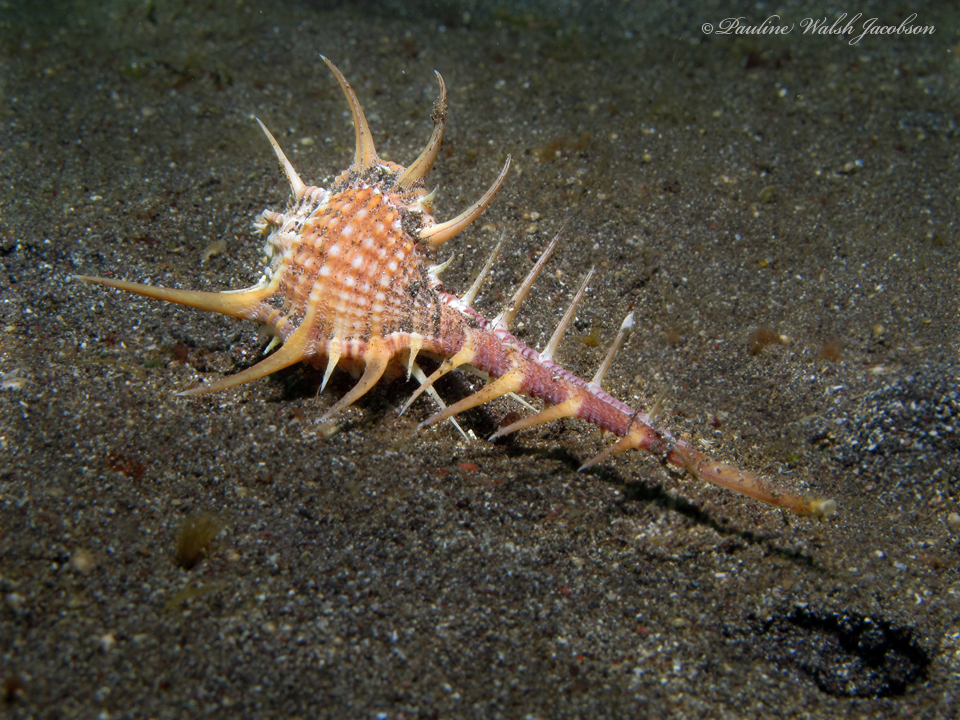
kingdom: Animalia
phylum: Mollusca
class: Gastropoda
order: Neogastropoda
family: Muricidae
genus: Murex
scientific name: Murex tenuirostrum
